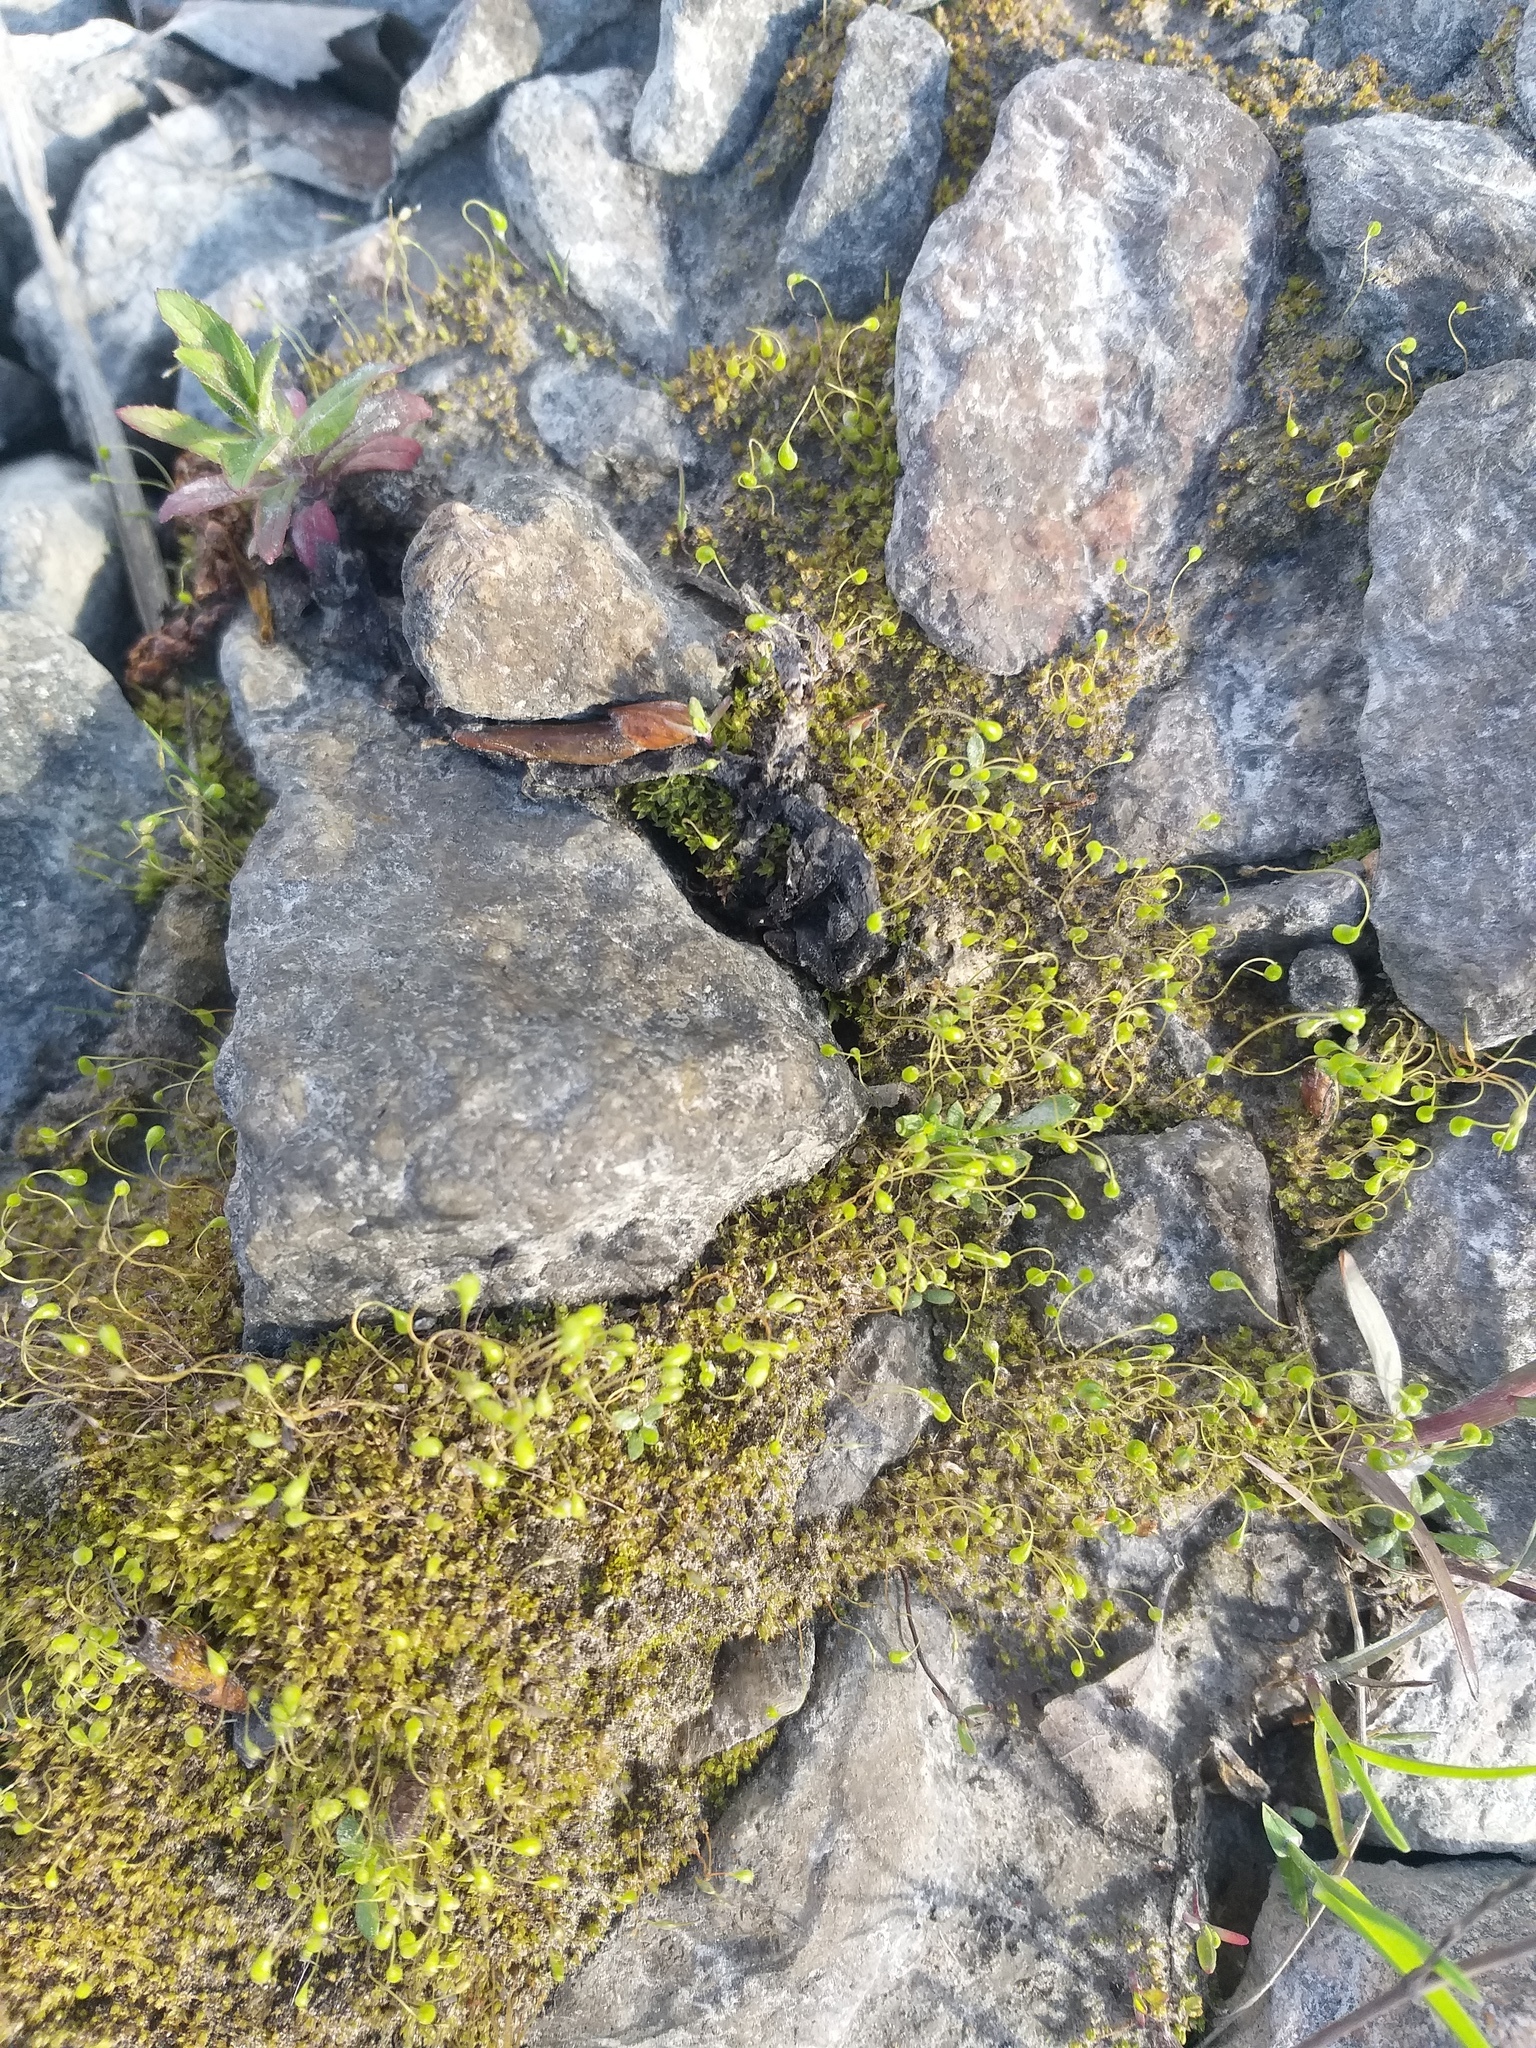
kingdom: Plantae
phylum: Bryophyta
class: Bryopsida
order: Funariales
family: Funariaceae
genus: Funaria
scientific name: Funaria hygrometrica
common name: Common cord moss
